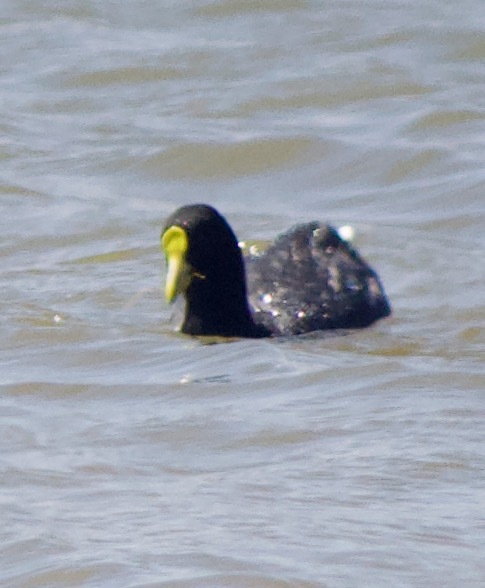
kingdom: Animalia
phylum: Chordata
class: Aves
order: Gruiformes
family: Rallidae
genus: Fulica
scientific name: Fulica leucoptera
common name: White-winged coot
